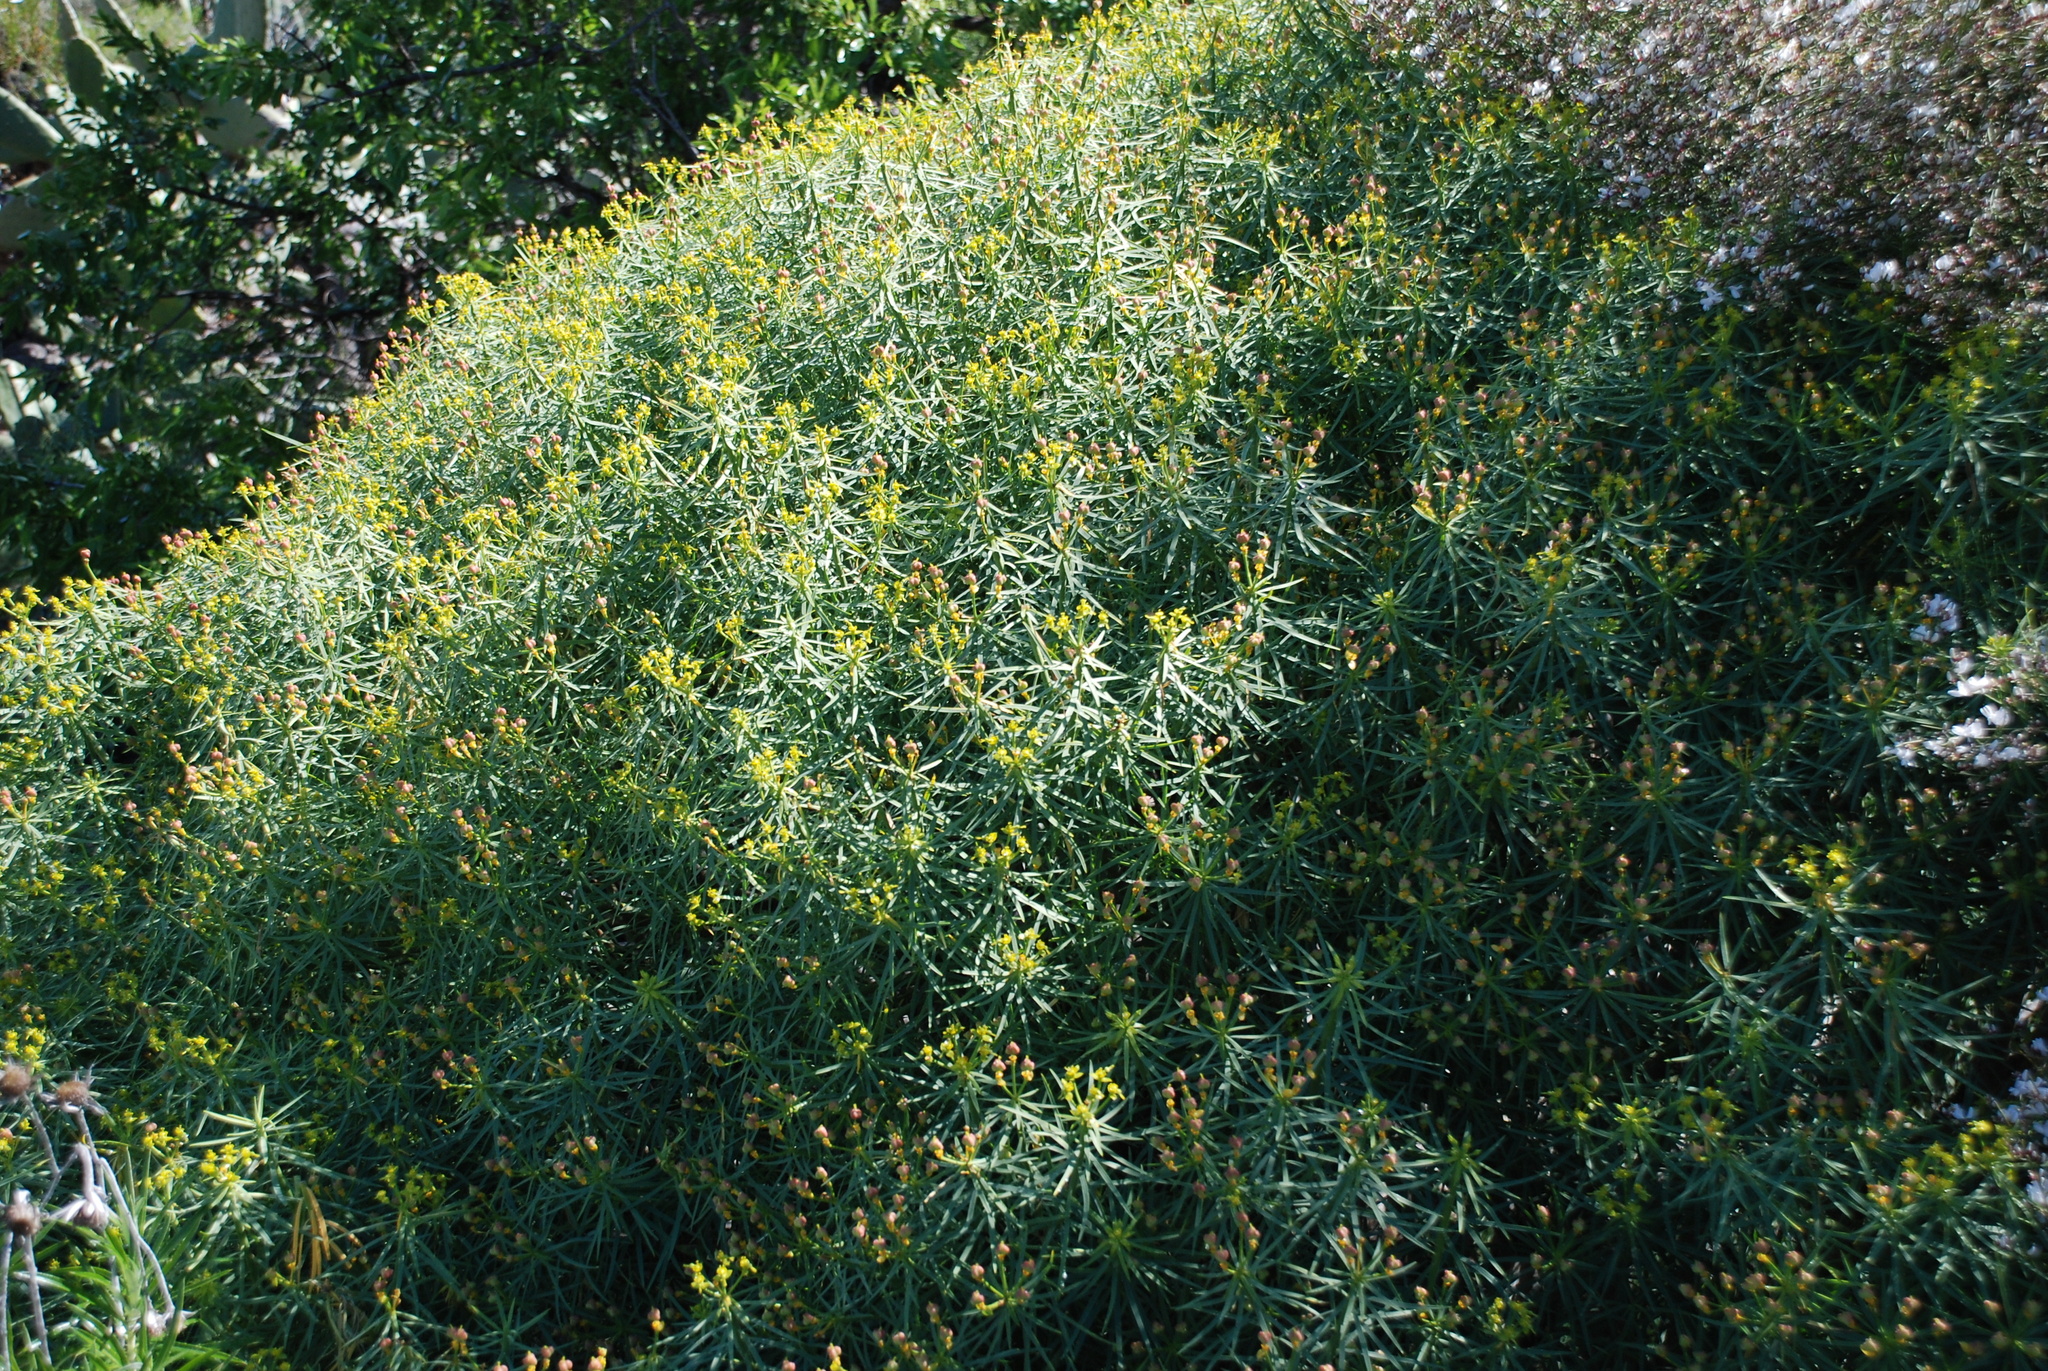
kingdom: Plantae
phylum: Tracheophyta
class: Magnoliopsida
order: Malpighiales
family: Euphorbiaceae
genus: Euphorbia
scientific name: Euphorbia lamarckii
